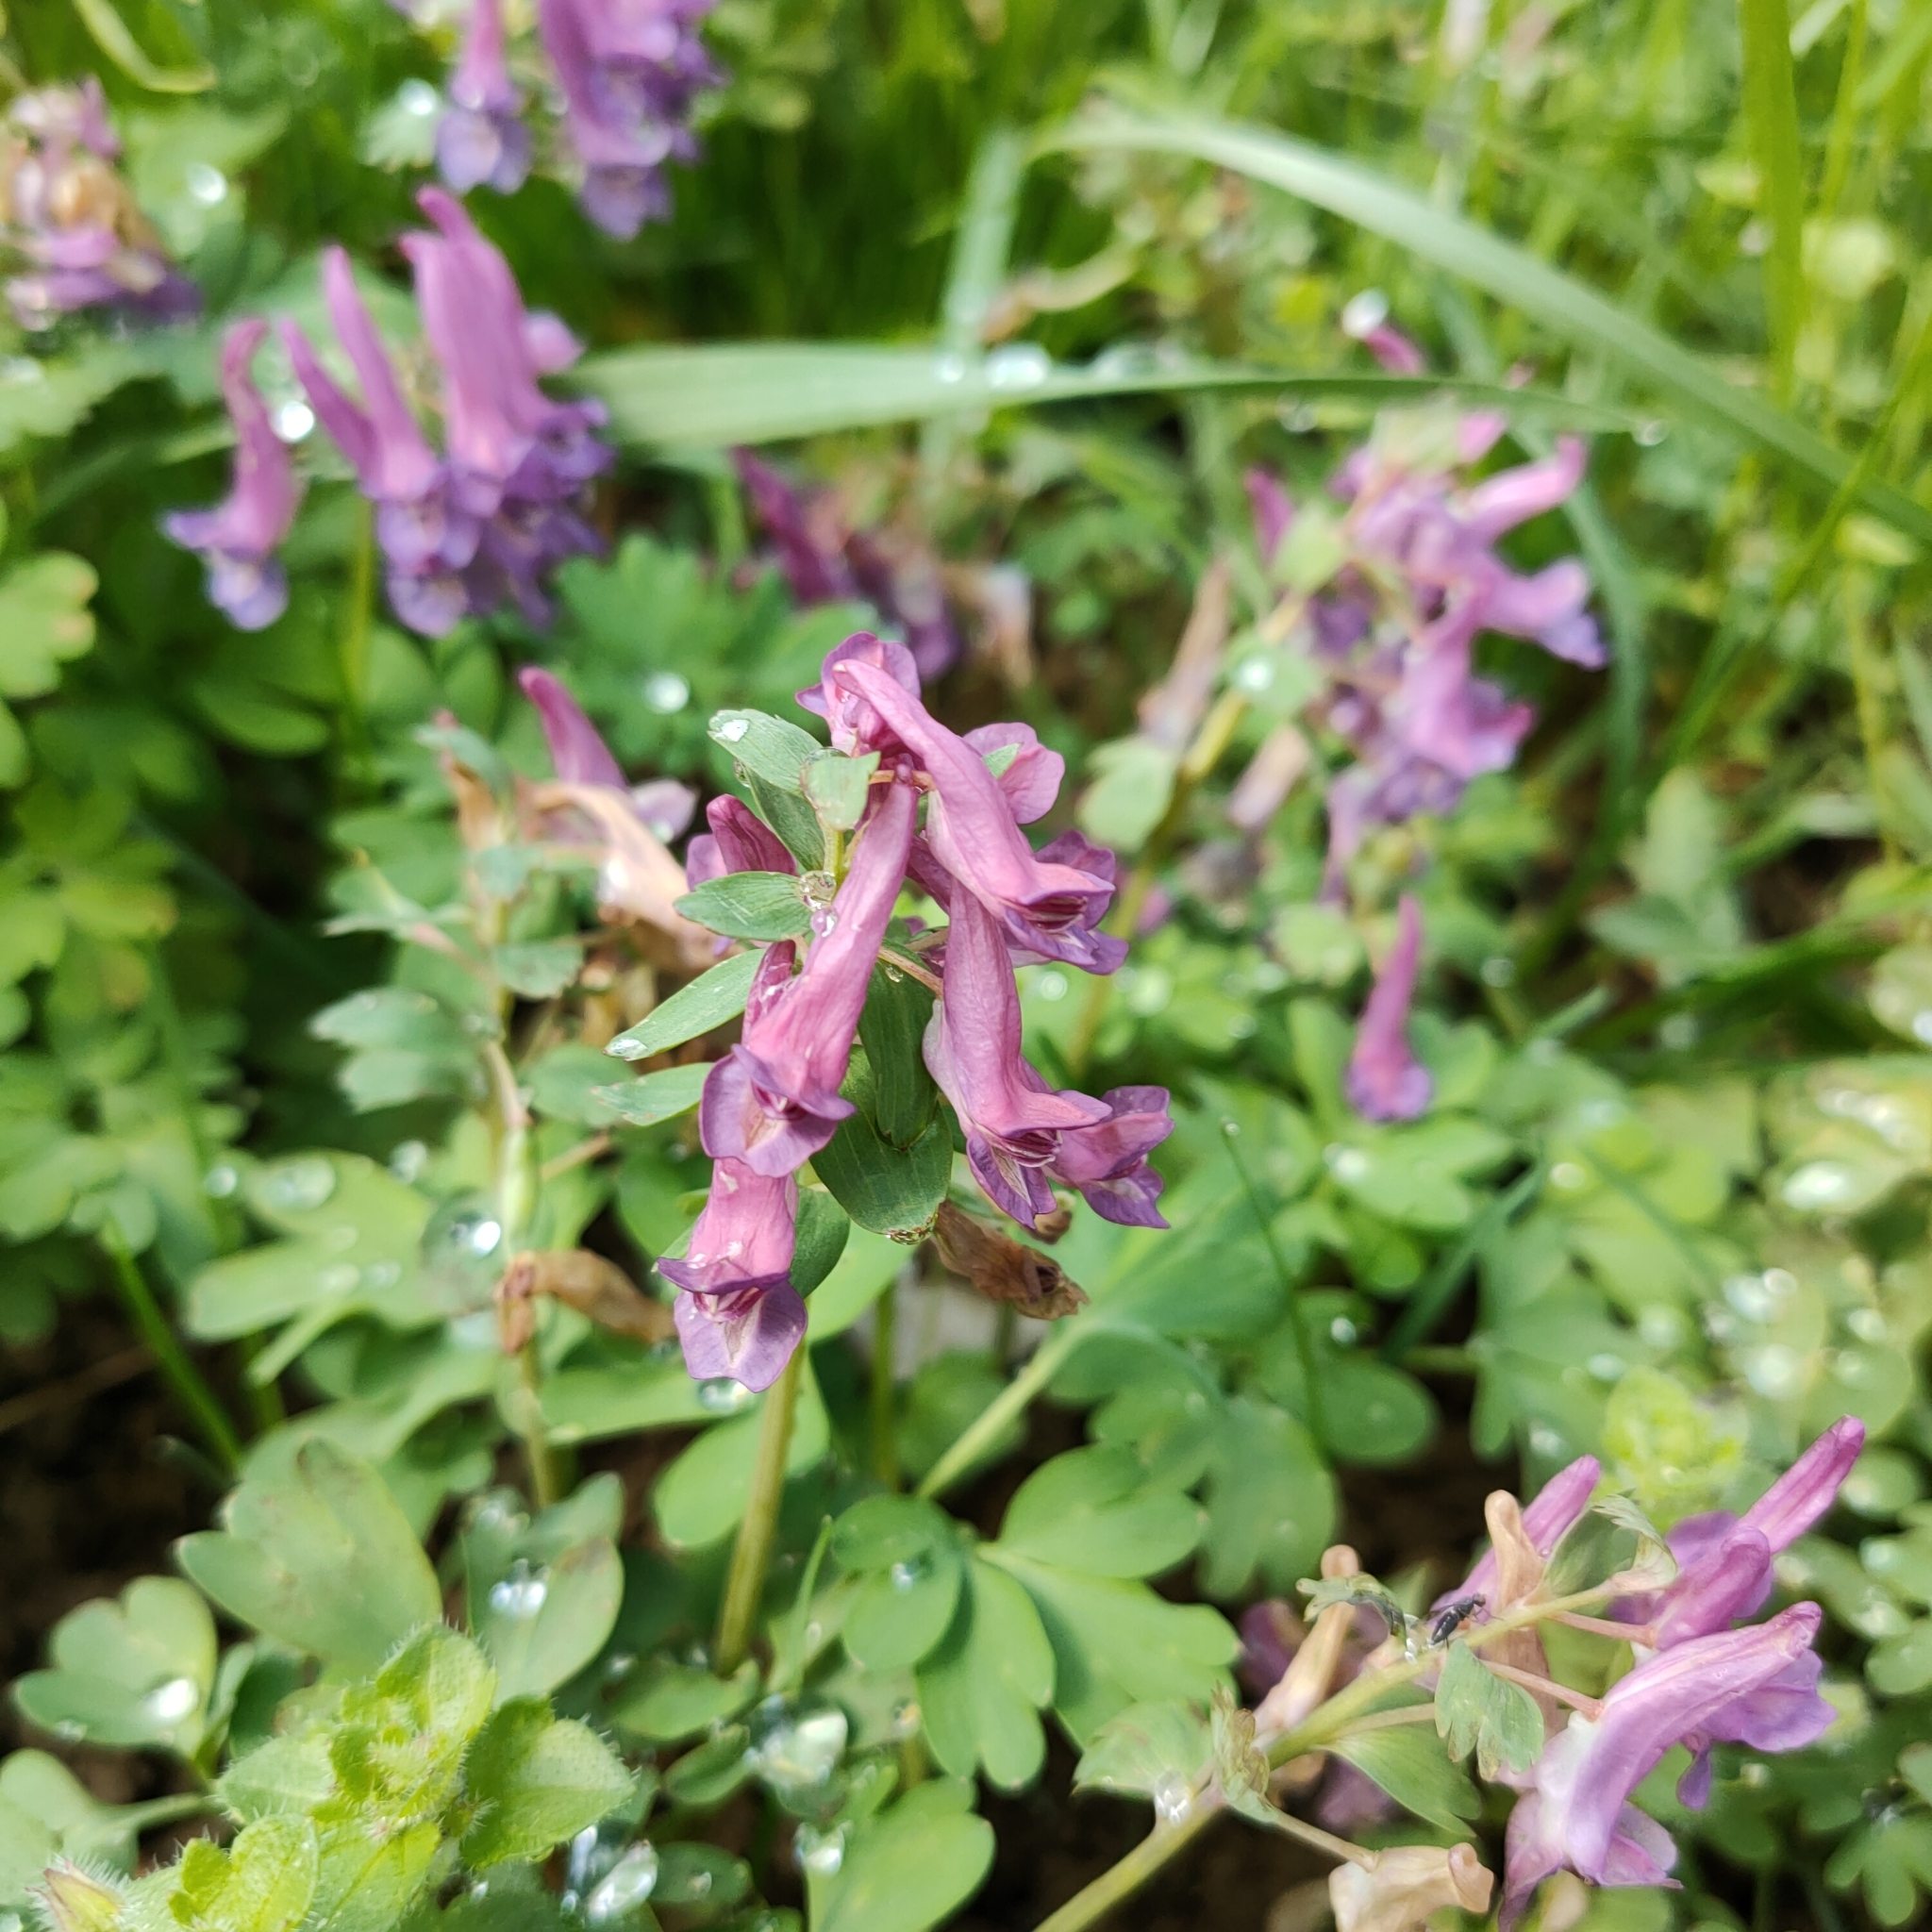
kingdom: Plantae
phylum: Tracheophyta
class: Magnoliopsida
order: Ranunculales
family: Papaveraceae
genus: Corydalis
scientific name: Corydalis solida
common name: Bird-in-a-bush
